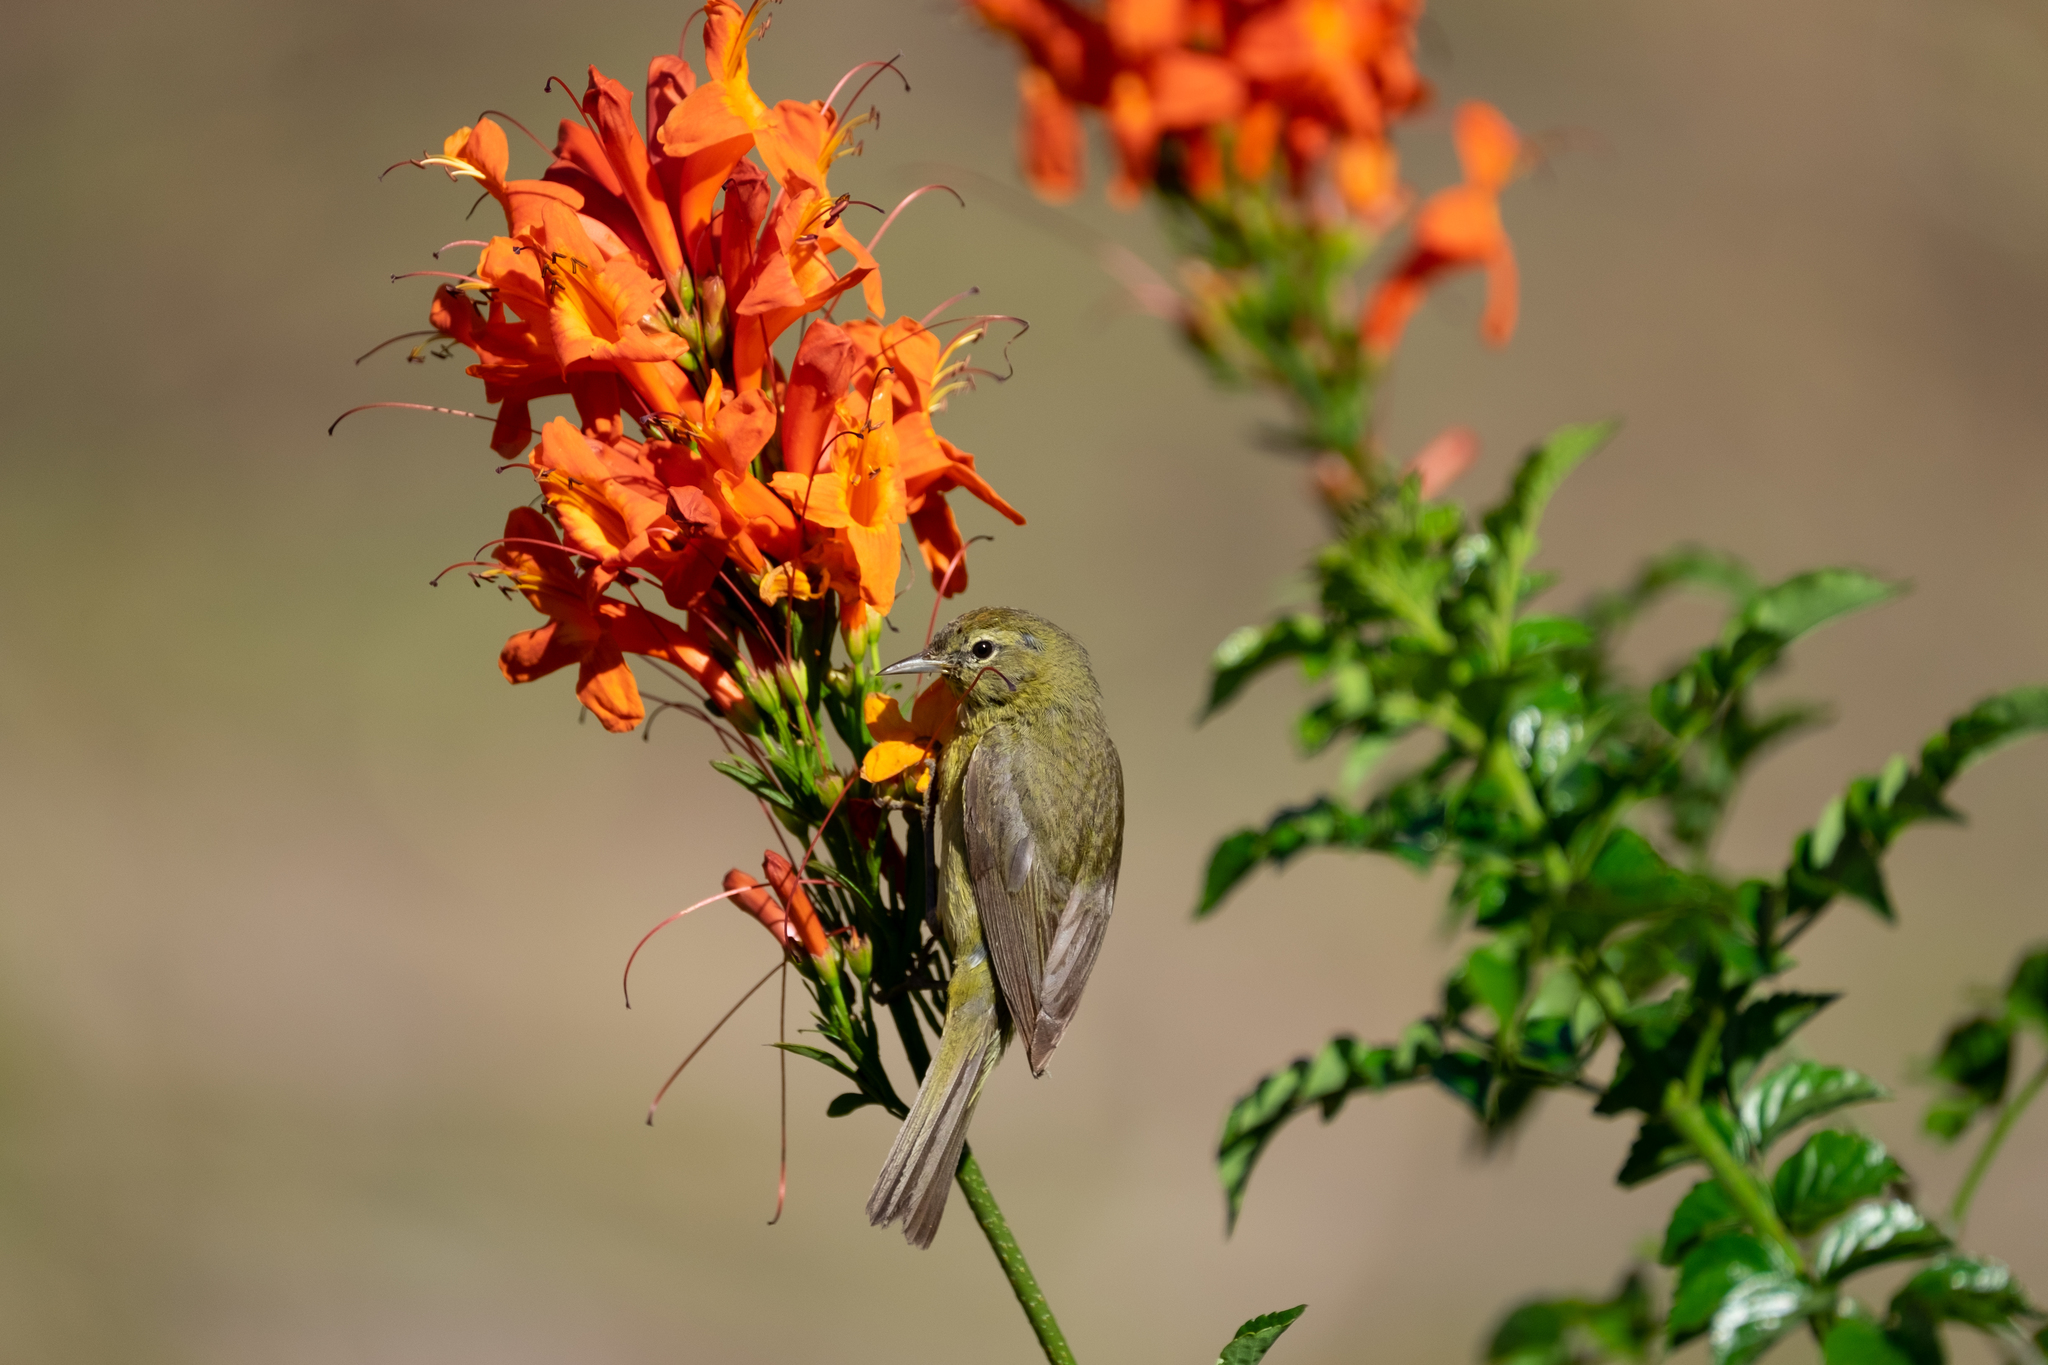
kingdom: Animalia
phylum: Chordata
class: Aves
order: Passeriformes
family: Parulidae
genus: Leiothlypis
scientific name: Leiothlypis celata
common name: Orange-crowned warbler
